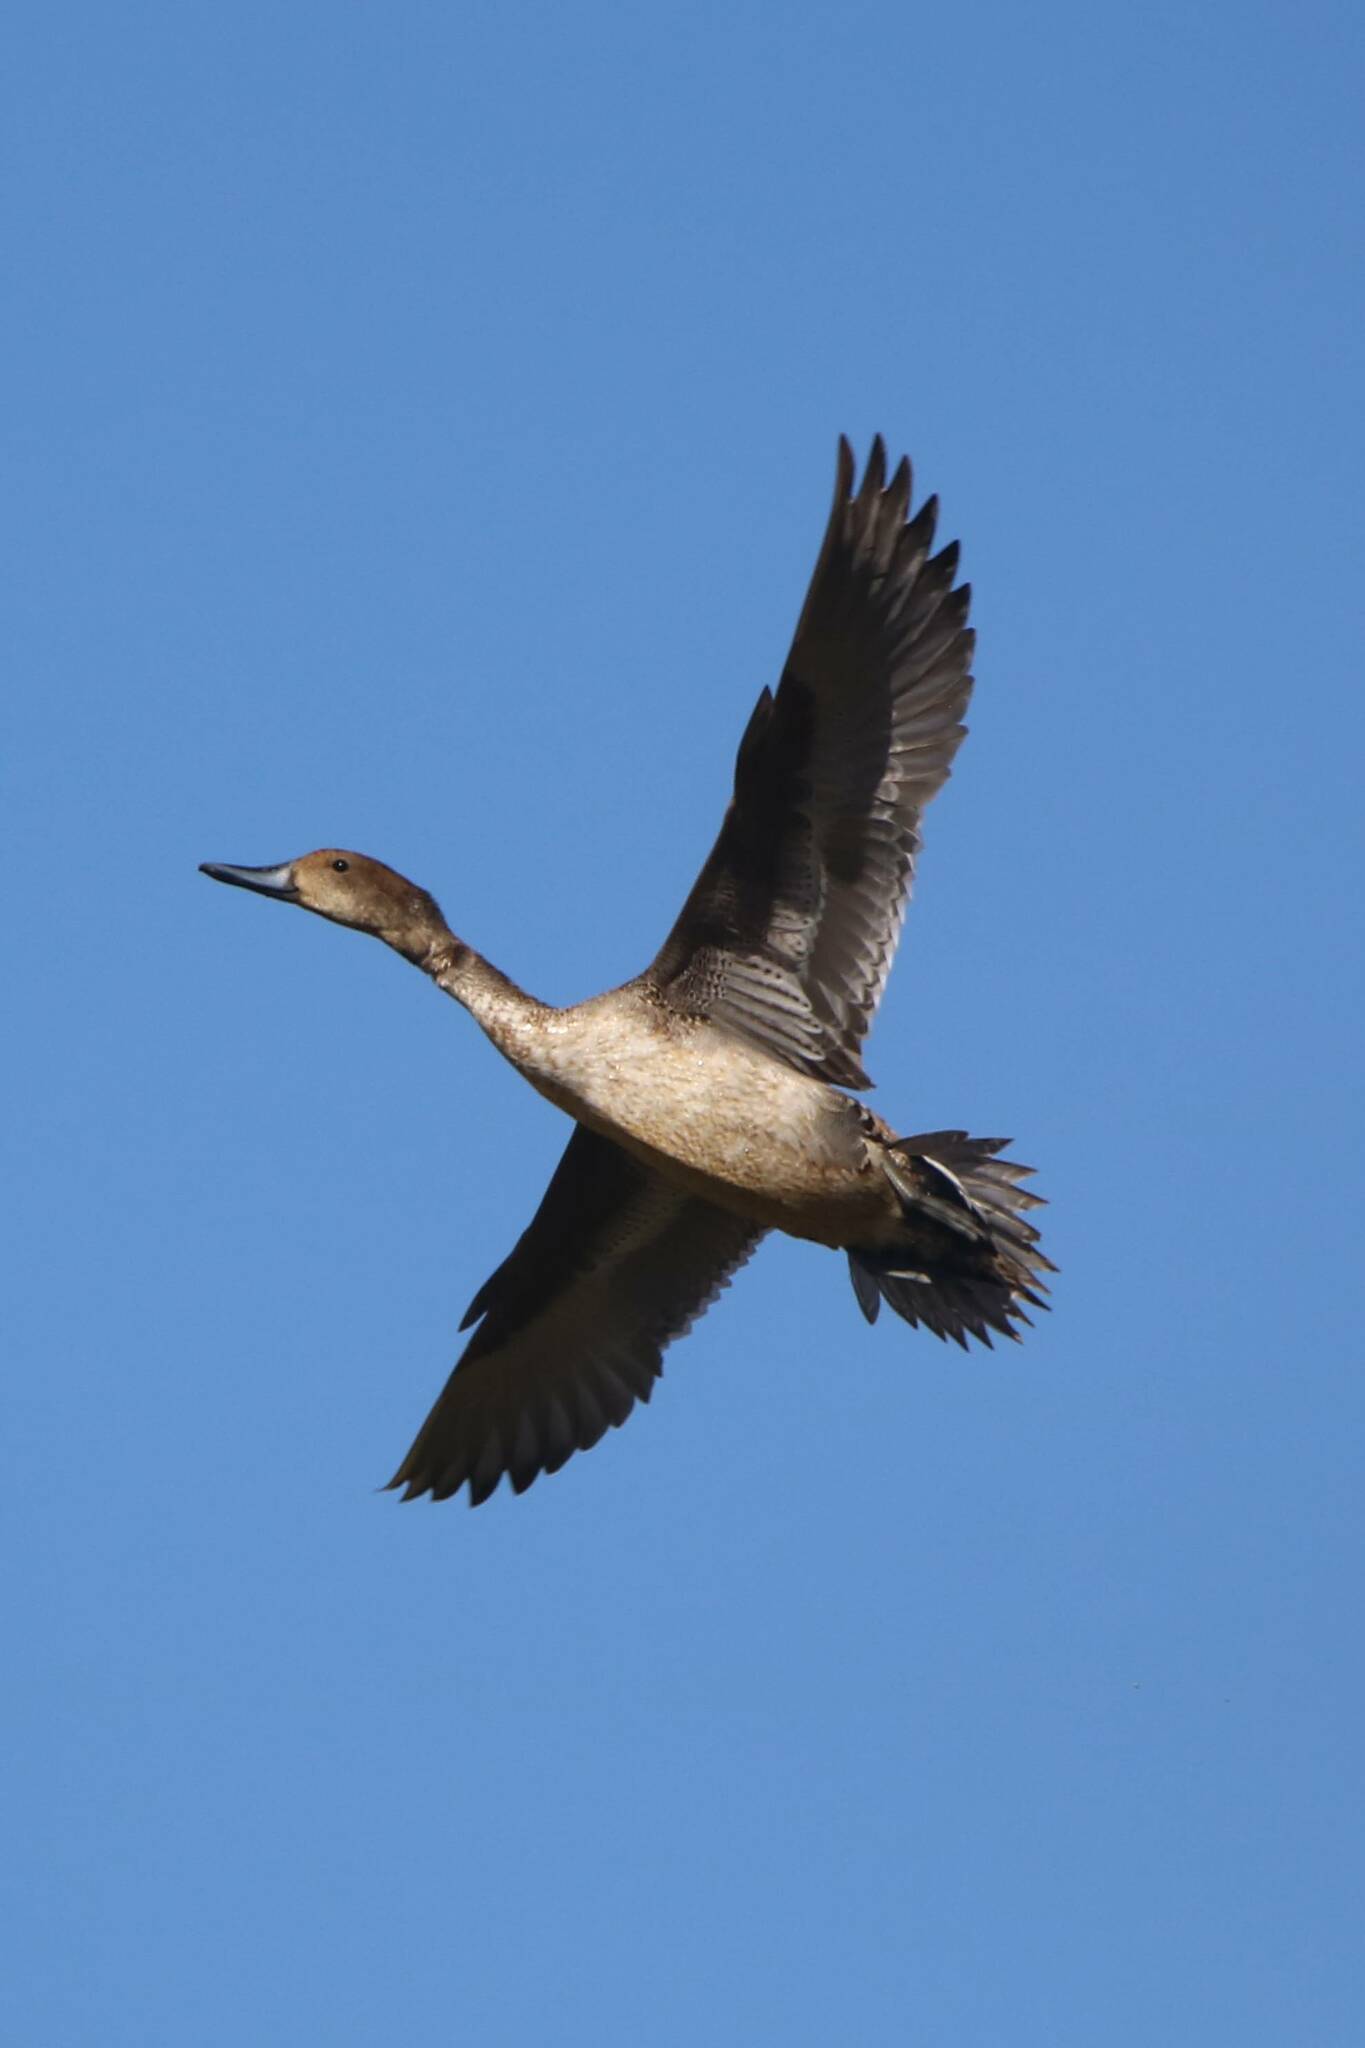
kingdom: Animalia
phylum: Chordata
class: Aves
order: Anseriformes
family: Anatidae
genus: Anas
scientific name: Anas acuta
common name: Northern pintail
